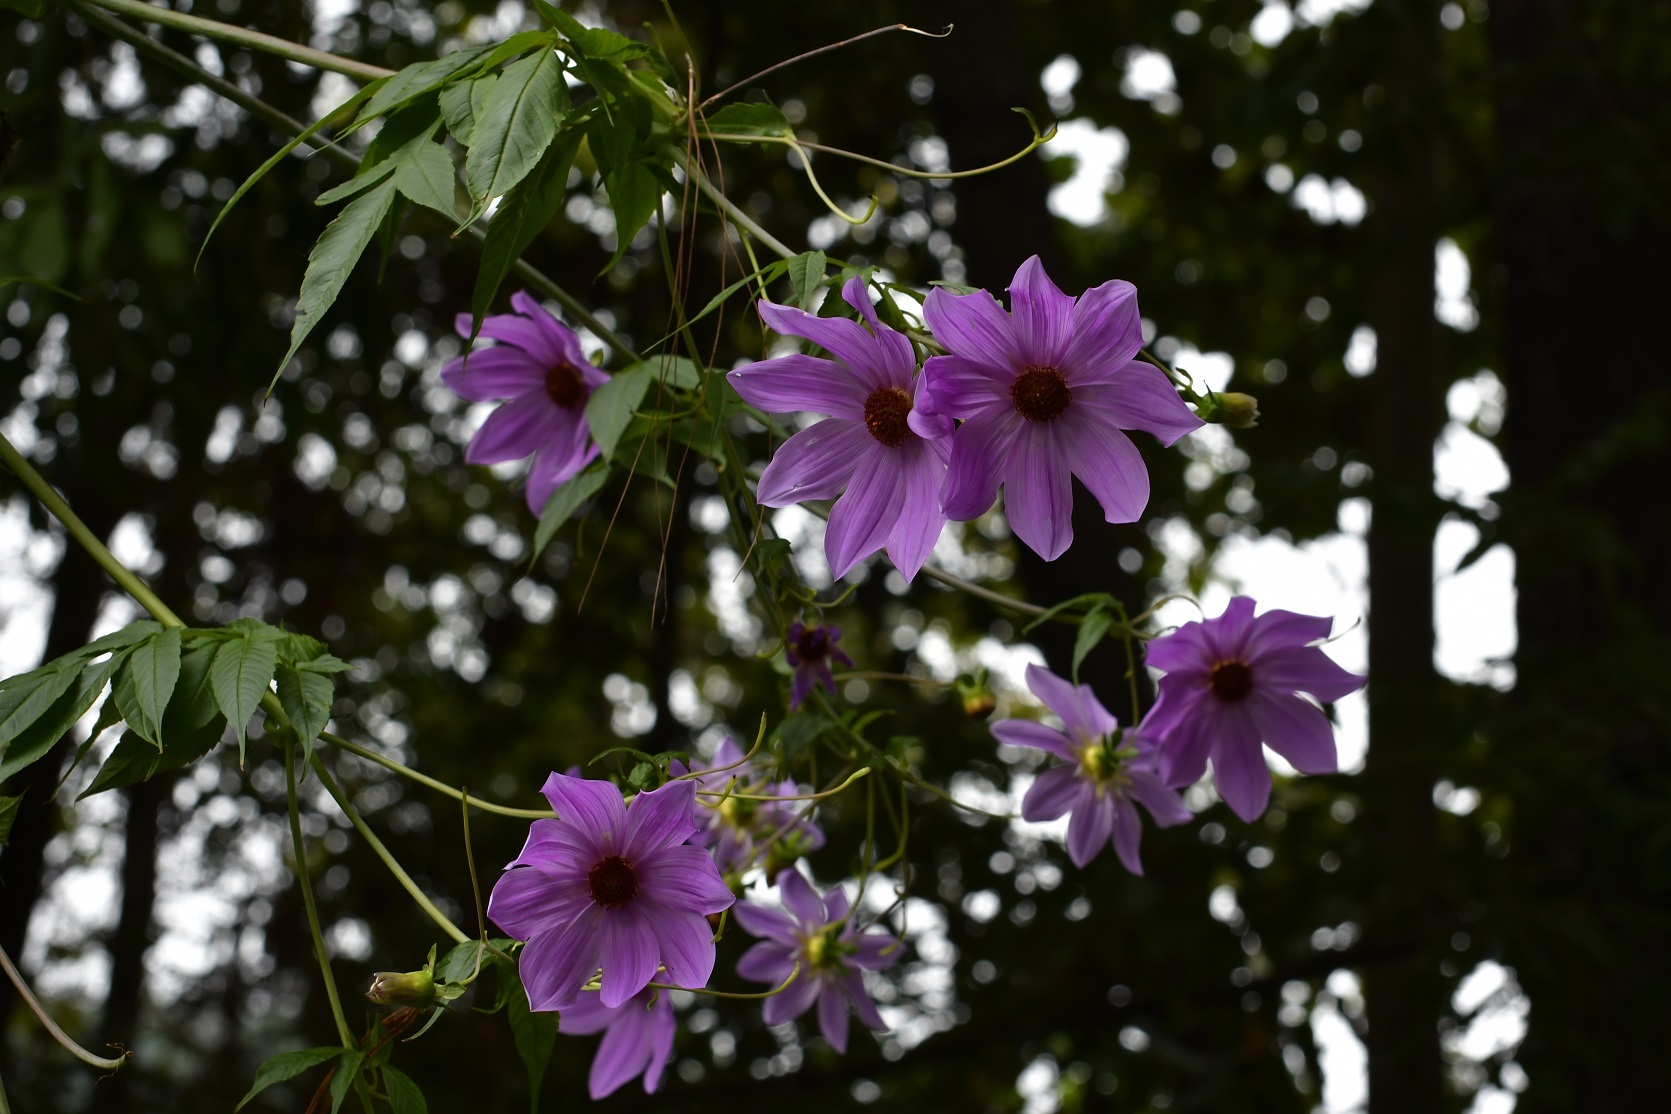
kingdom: Plantae
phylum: Tracheophyta
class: Magnoliopsida
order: Asterales
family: Asteraceae
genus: Dahlia
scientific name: Dahlia imperialis
